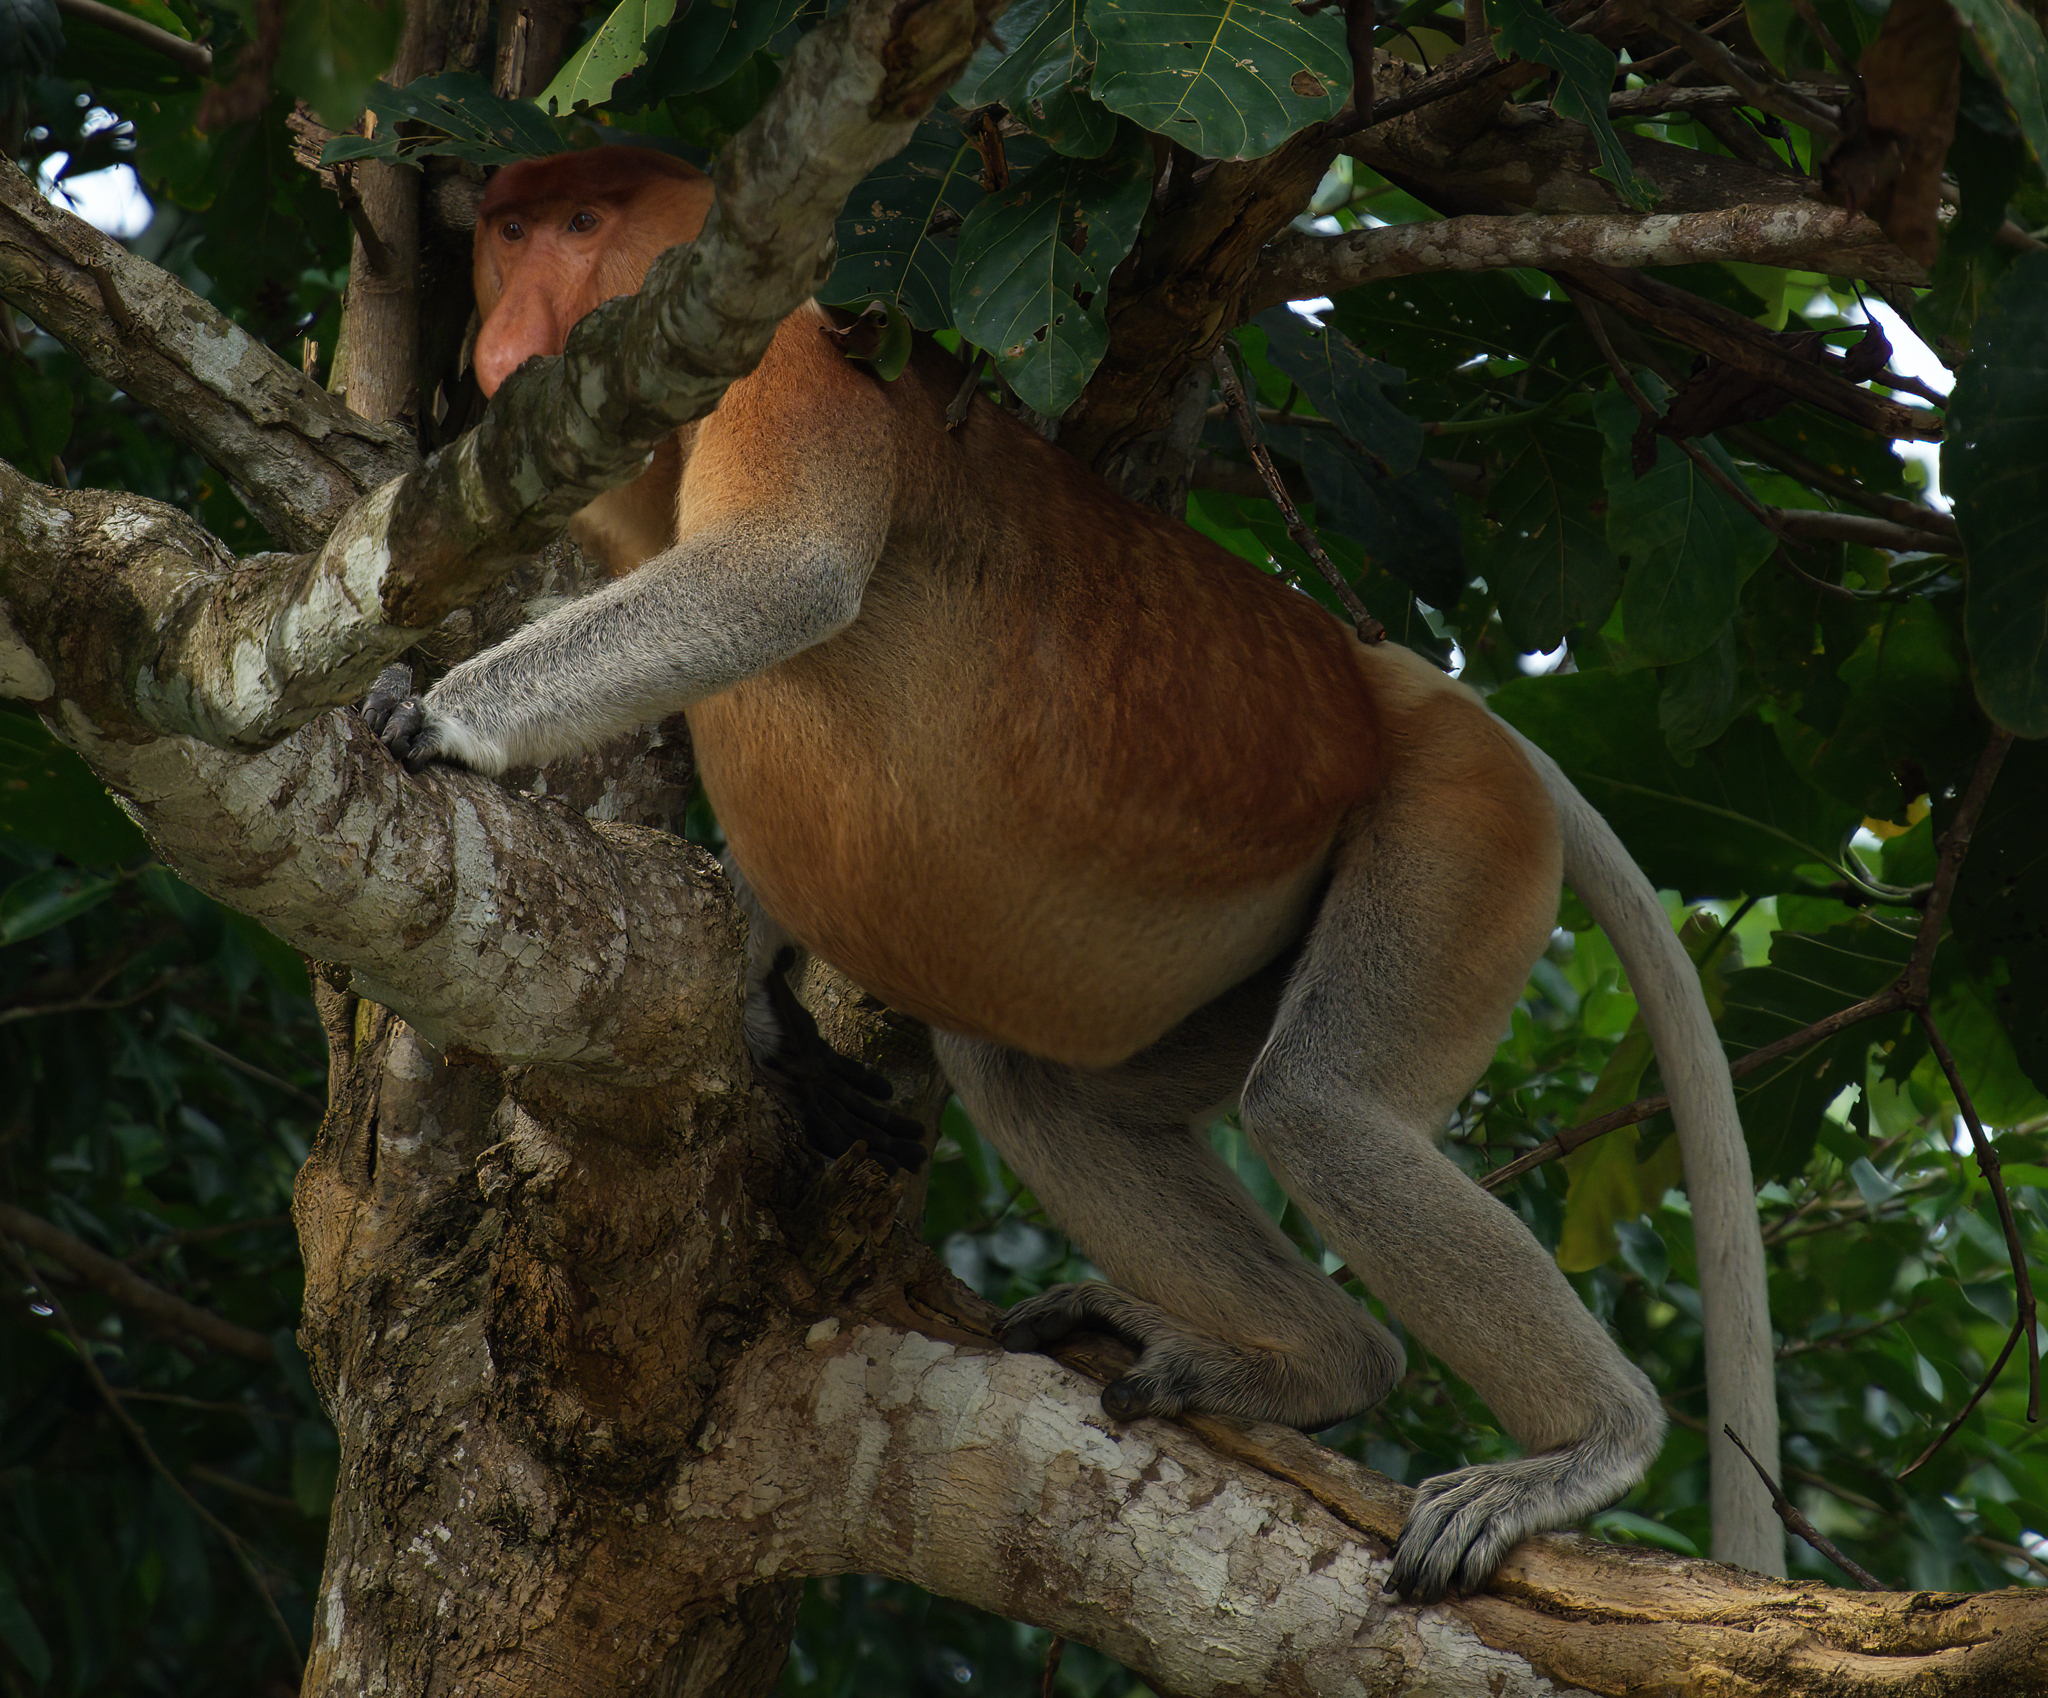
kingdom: Animalia
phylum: Chordata
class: Mammalia
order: Primates
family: Cercopithecidae
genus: Nasalis
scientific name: Nasalis larvatus
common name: Proboscis monkey
